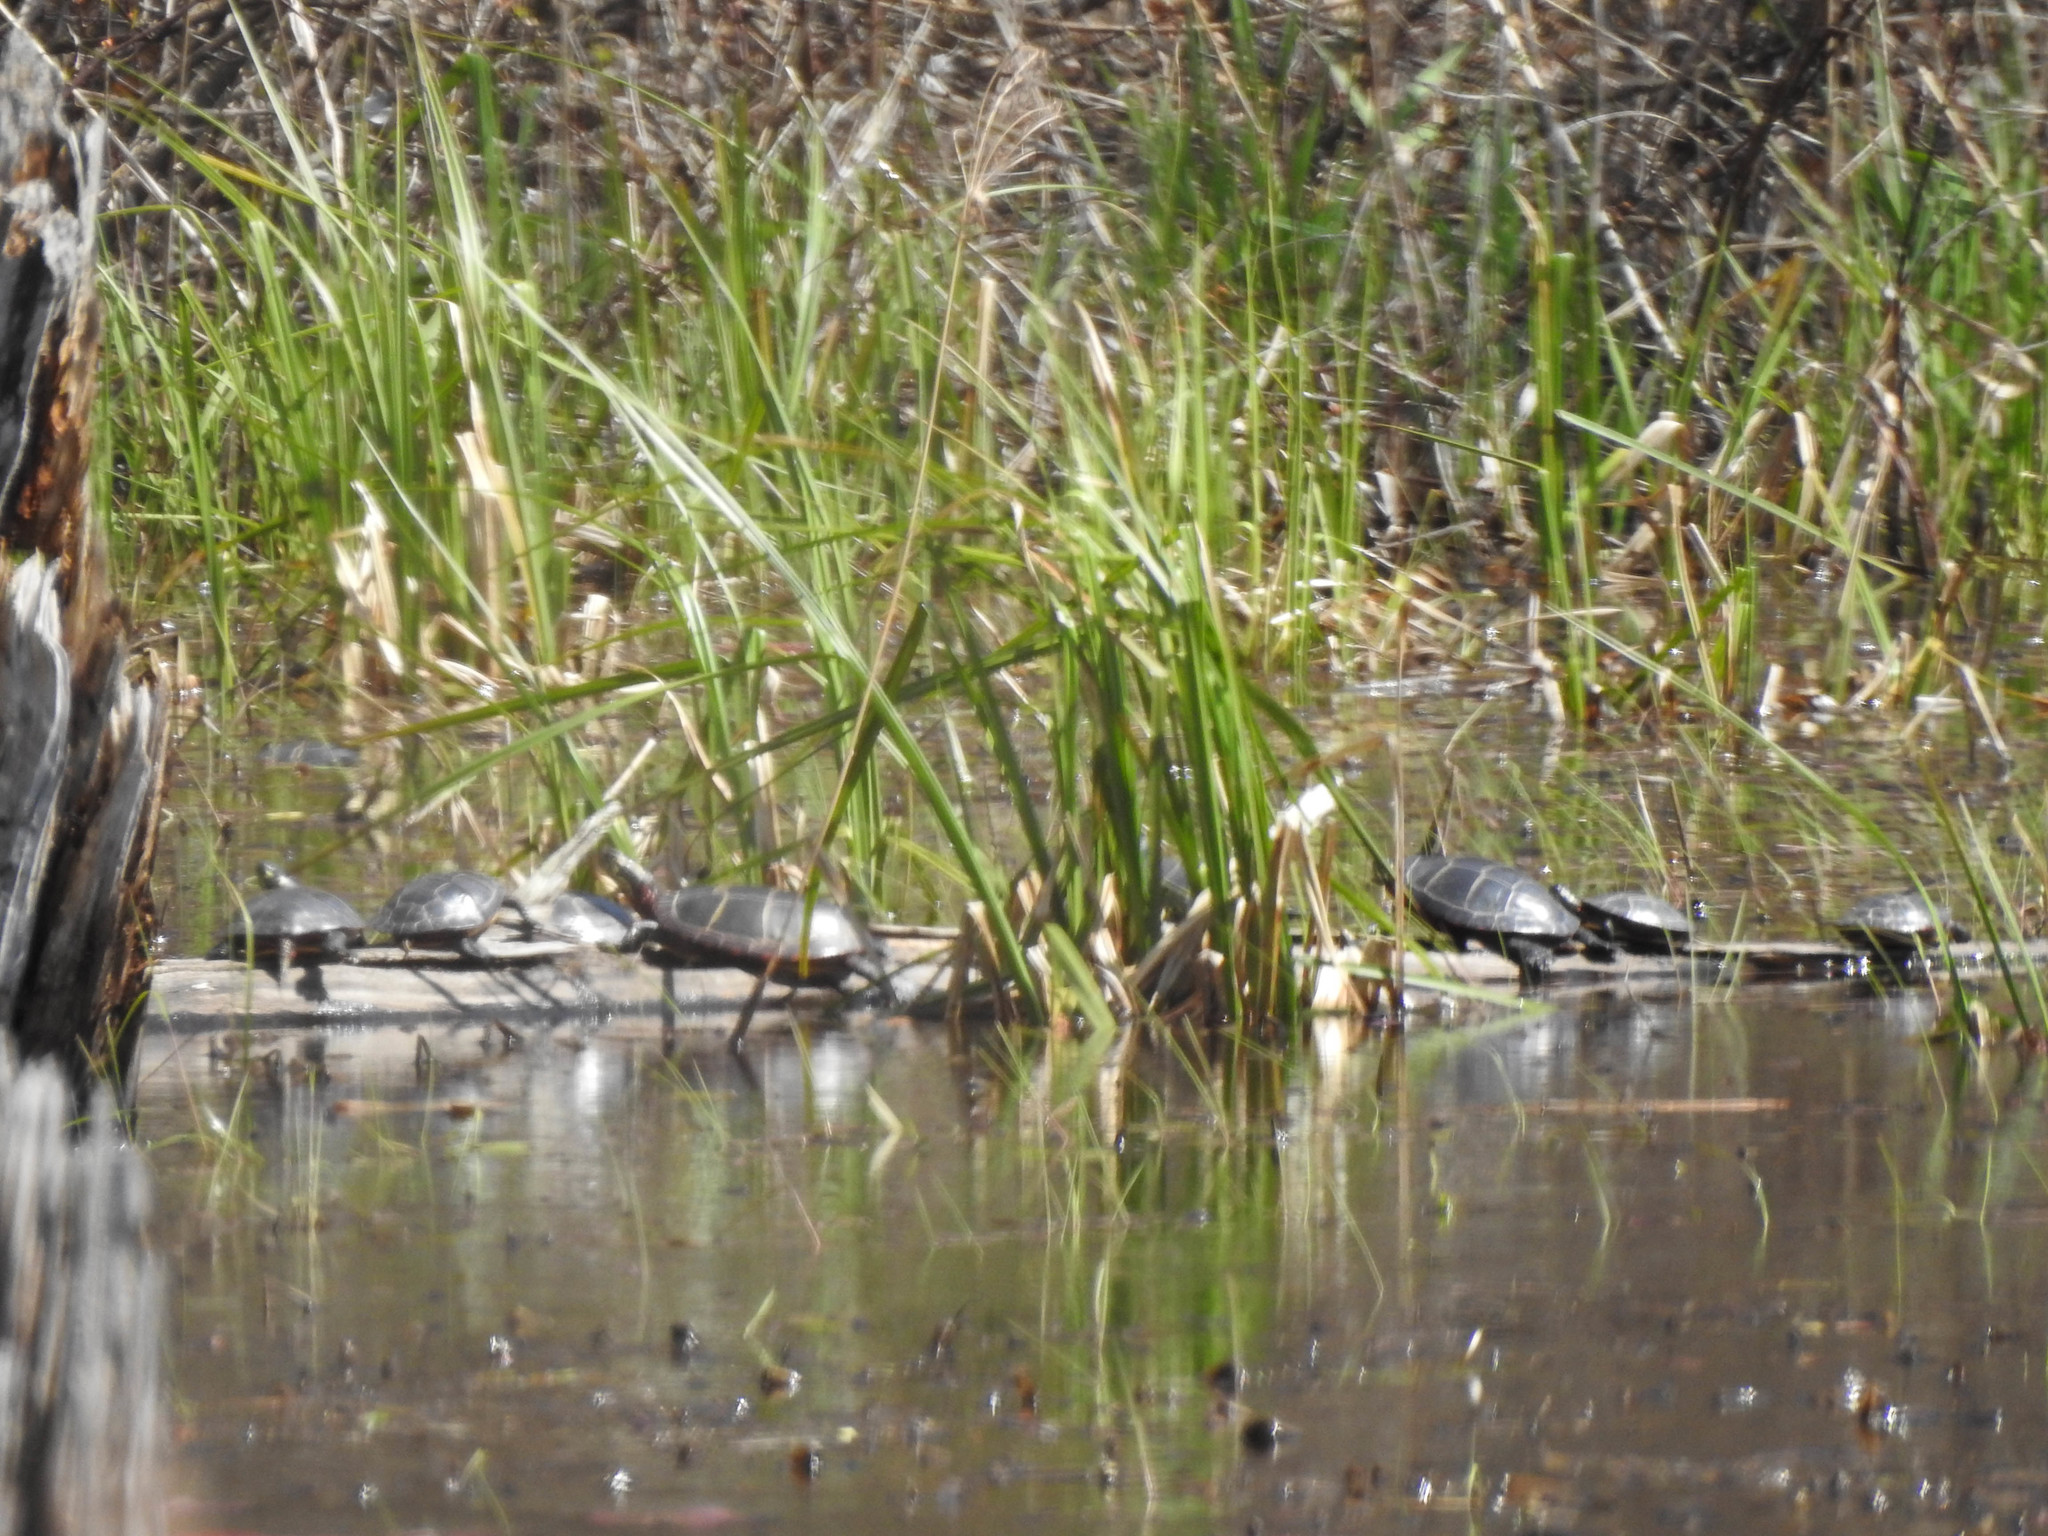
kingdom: Animalia
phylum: Chordata
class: Testudines
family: Emydidae
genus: Chrysemys
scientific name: Chrysemys picta
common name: Painted turtle
